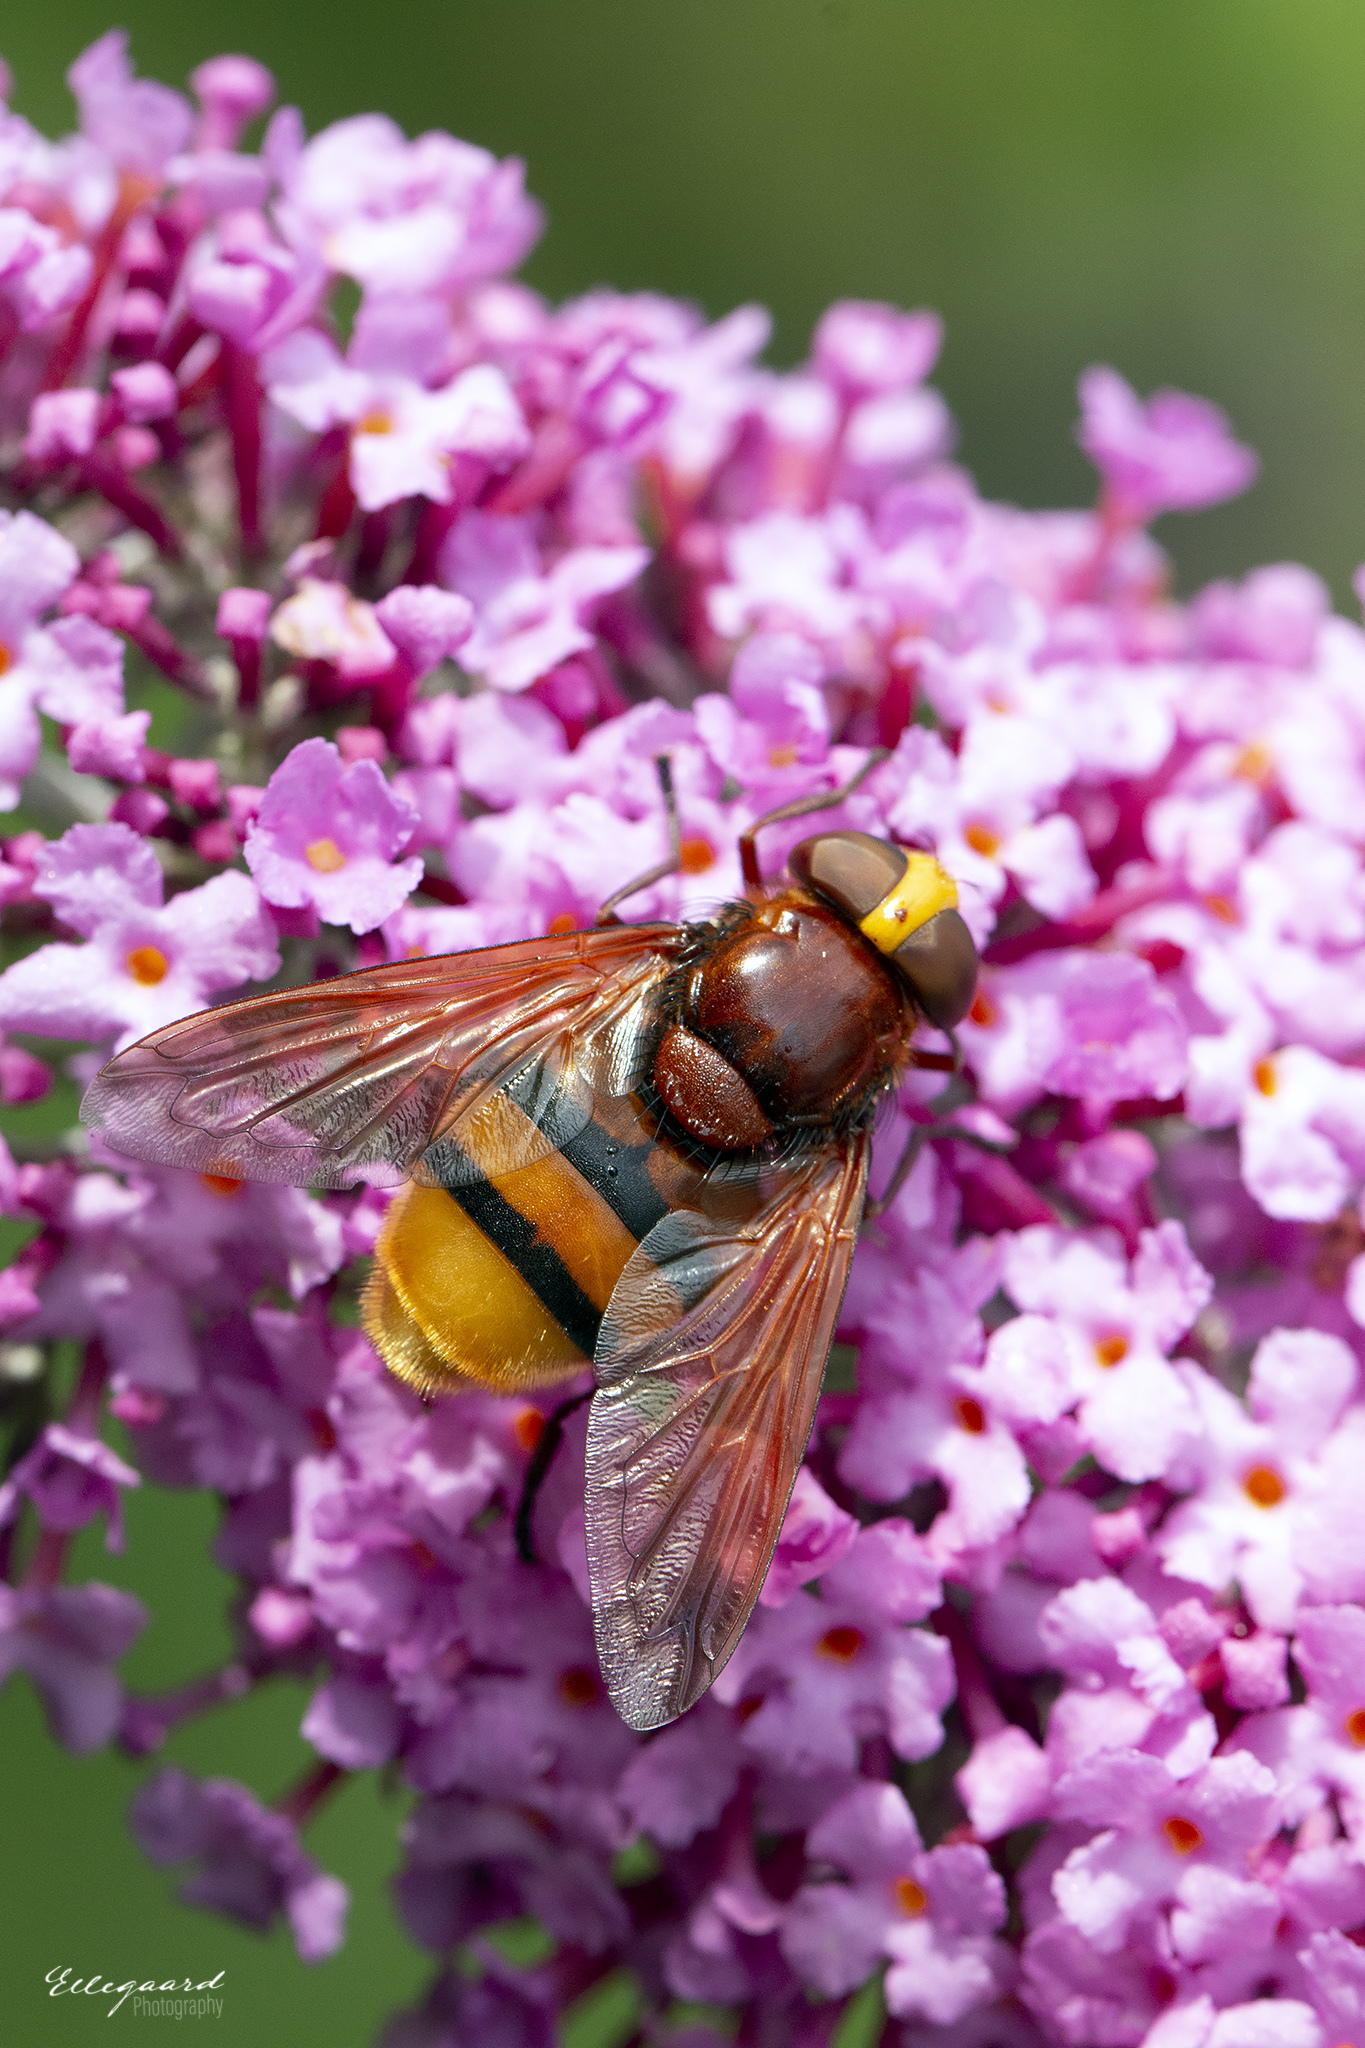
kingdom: Animalia
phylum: Arthropoda
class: Insecta
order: Diptera
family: Syrphidae
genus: Volucella
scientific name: Volucella zonaria
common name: Hornet hoverfly
